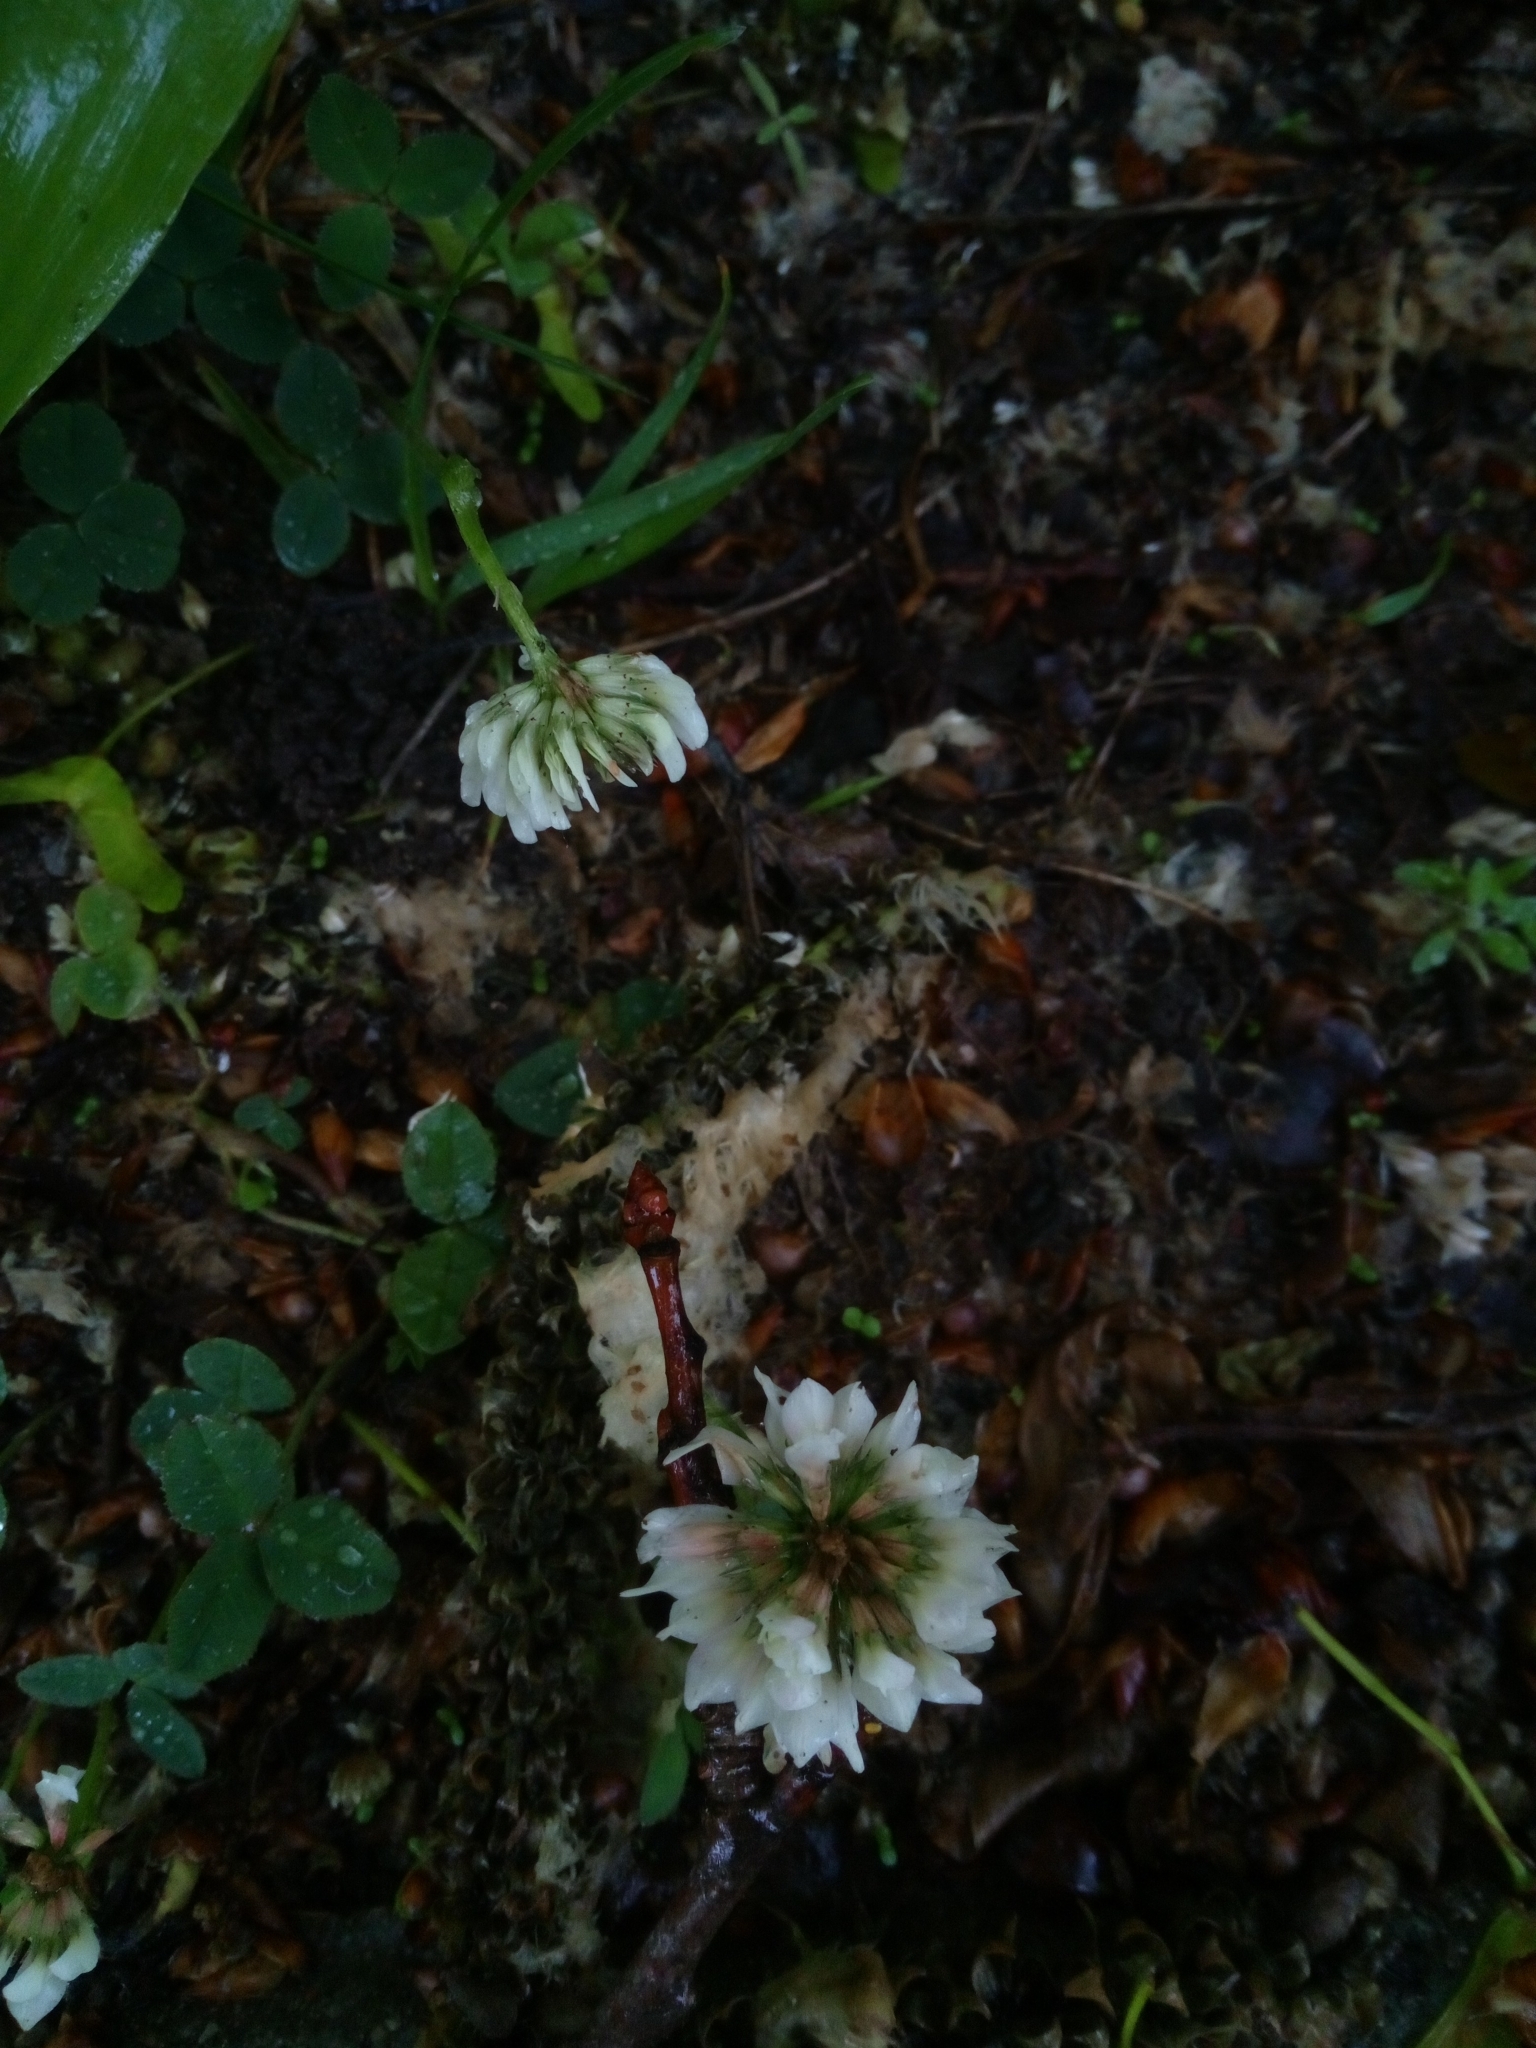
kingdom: Plantae
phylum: Tracheophyta
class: Magnoliopsida
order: Fabales
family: Fabaceae
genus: Trifolium
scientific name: Trifolium repens
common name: White clover
